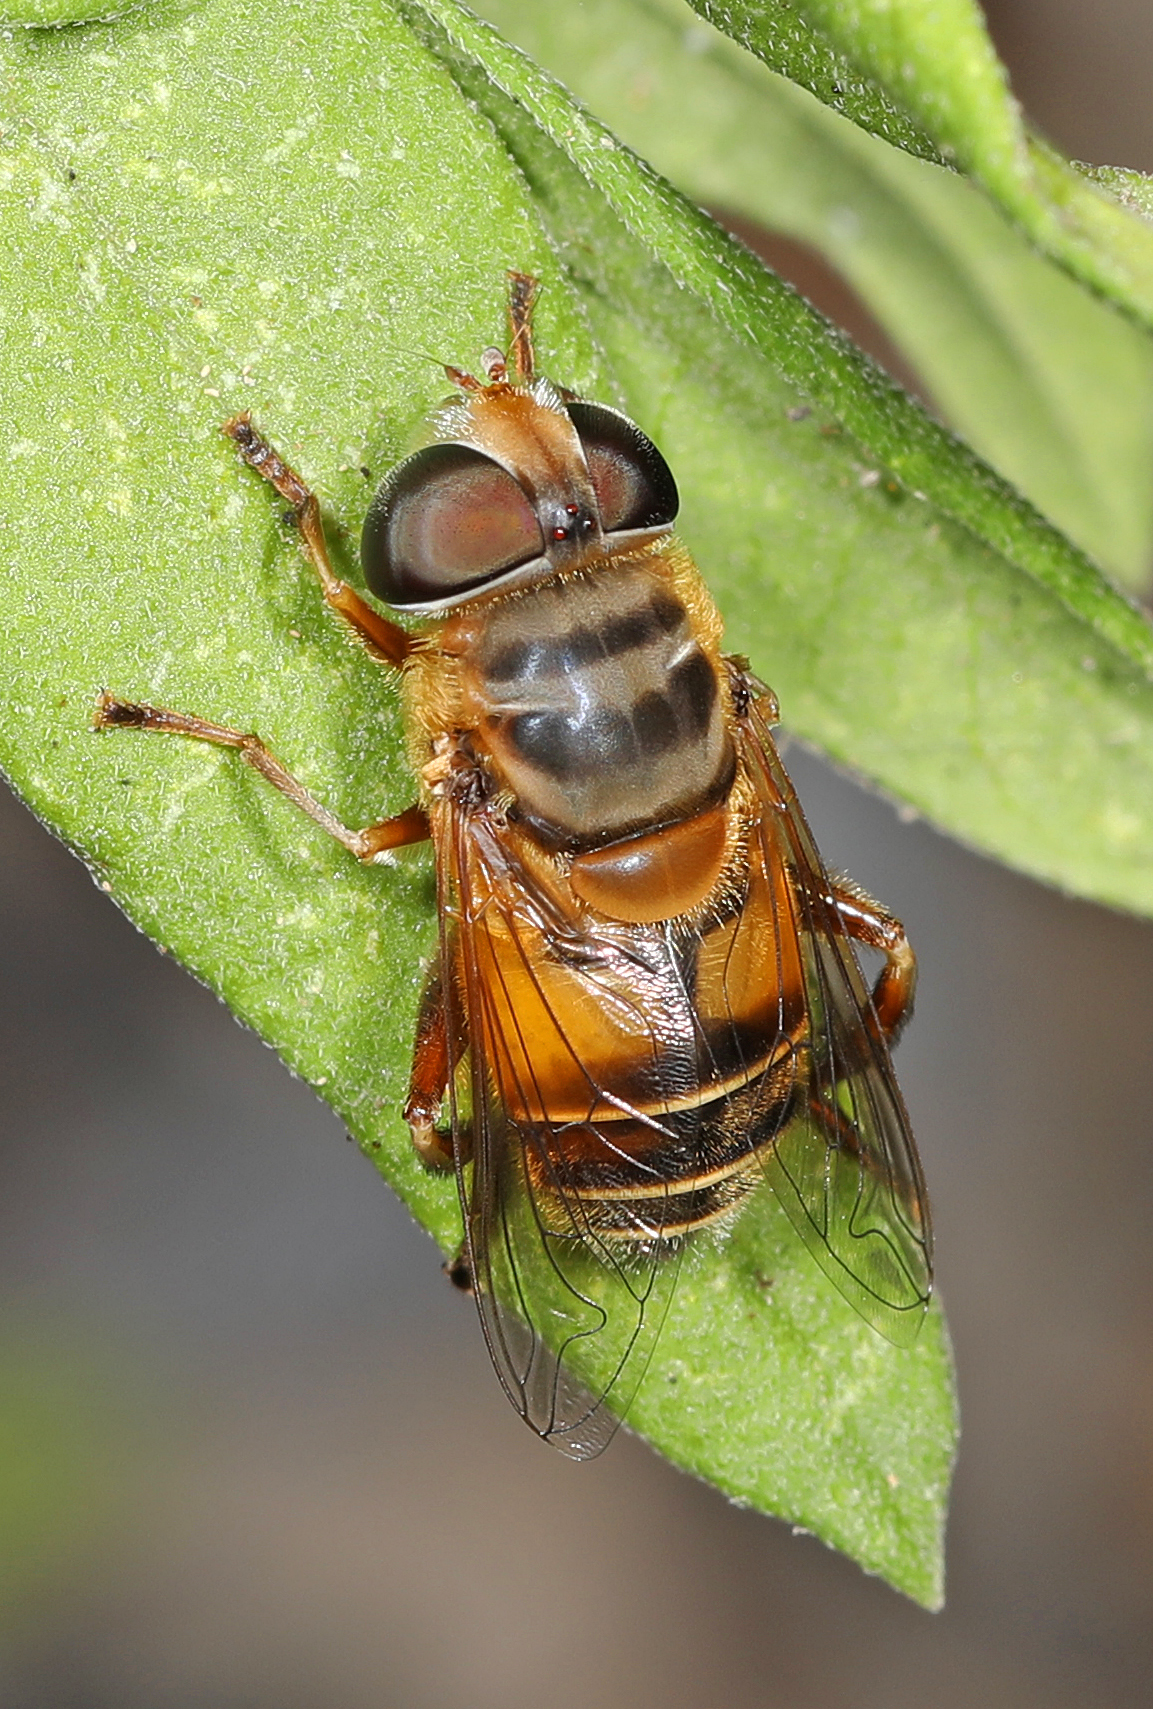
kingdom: Animalia
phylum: Arthropoda
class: Insecta
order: Diptera
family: Syrphidae
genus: Palpada
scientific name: Palpada vinetorum
